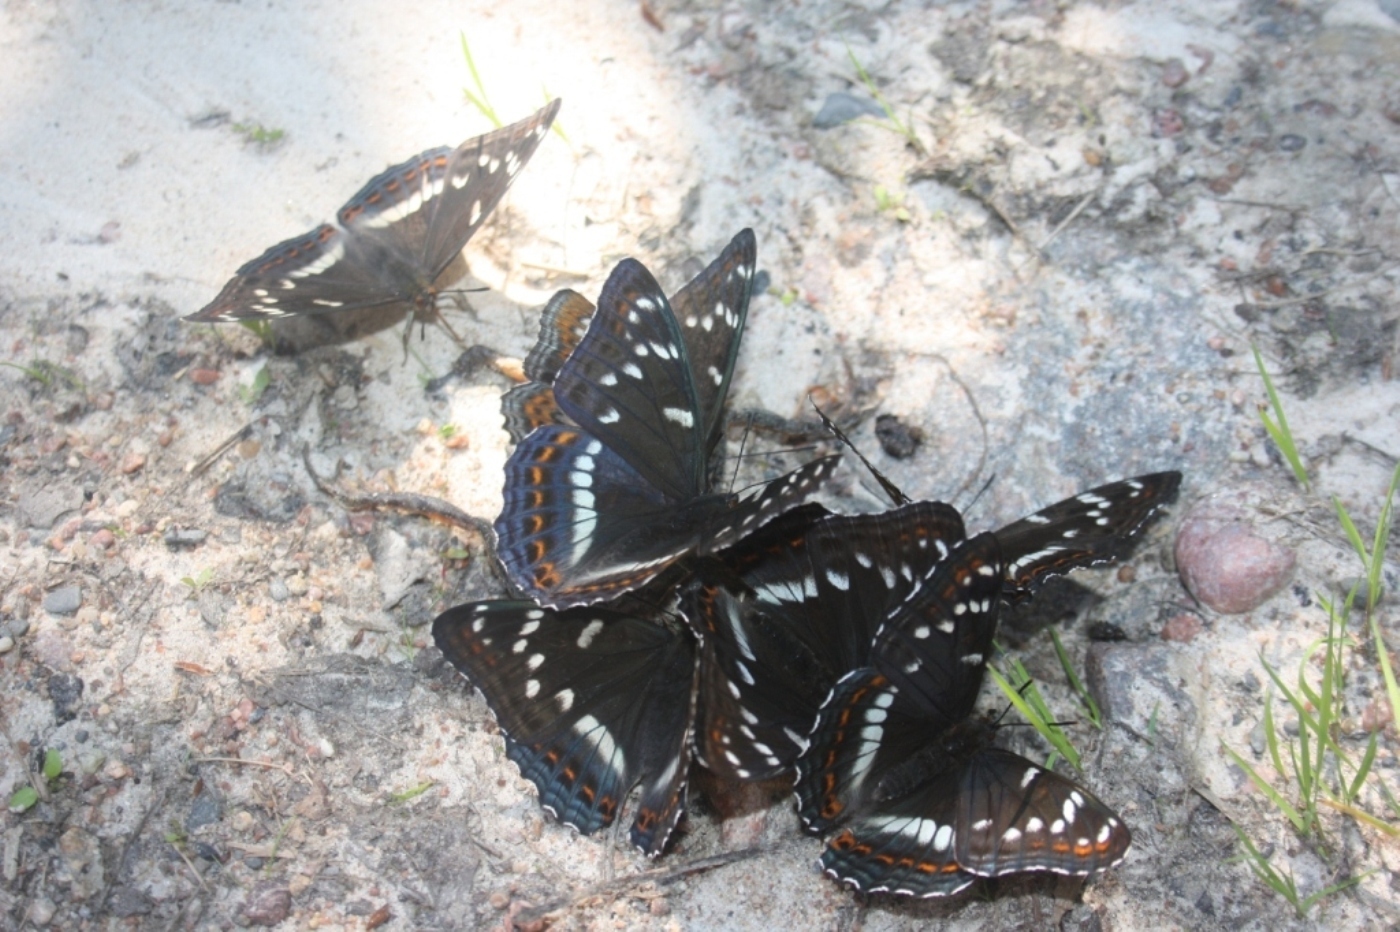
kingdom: Animalia
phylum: Arthropoda
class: Insecta
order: Lepidoptera
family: Nymphalidae
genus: Limenitis
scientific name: Limenitis populi
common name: Poplar admiral
